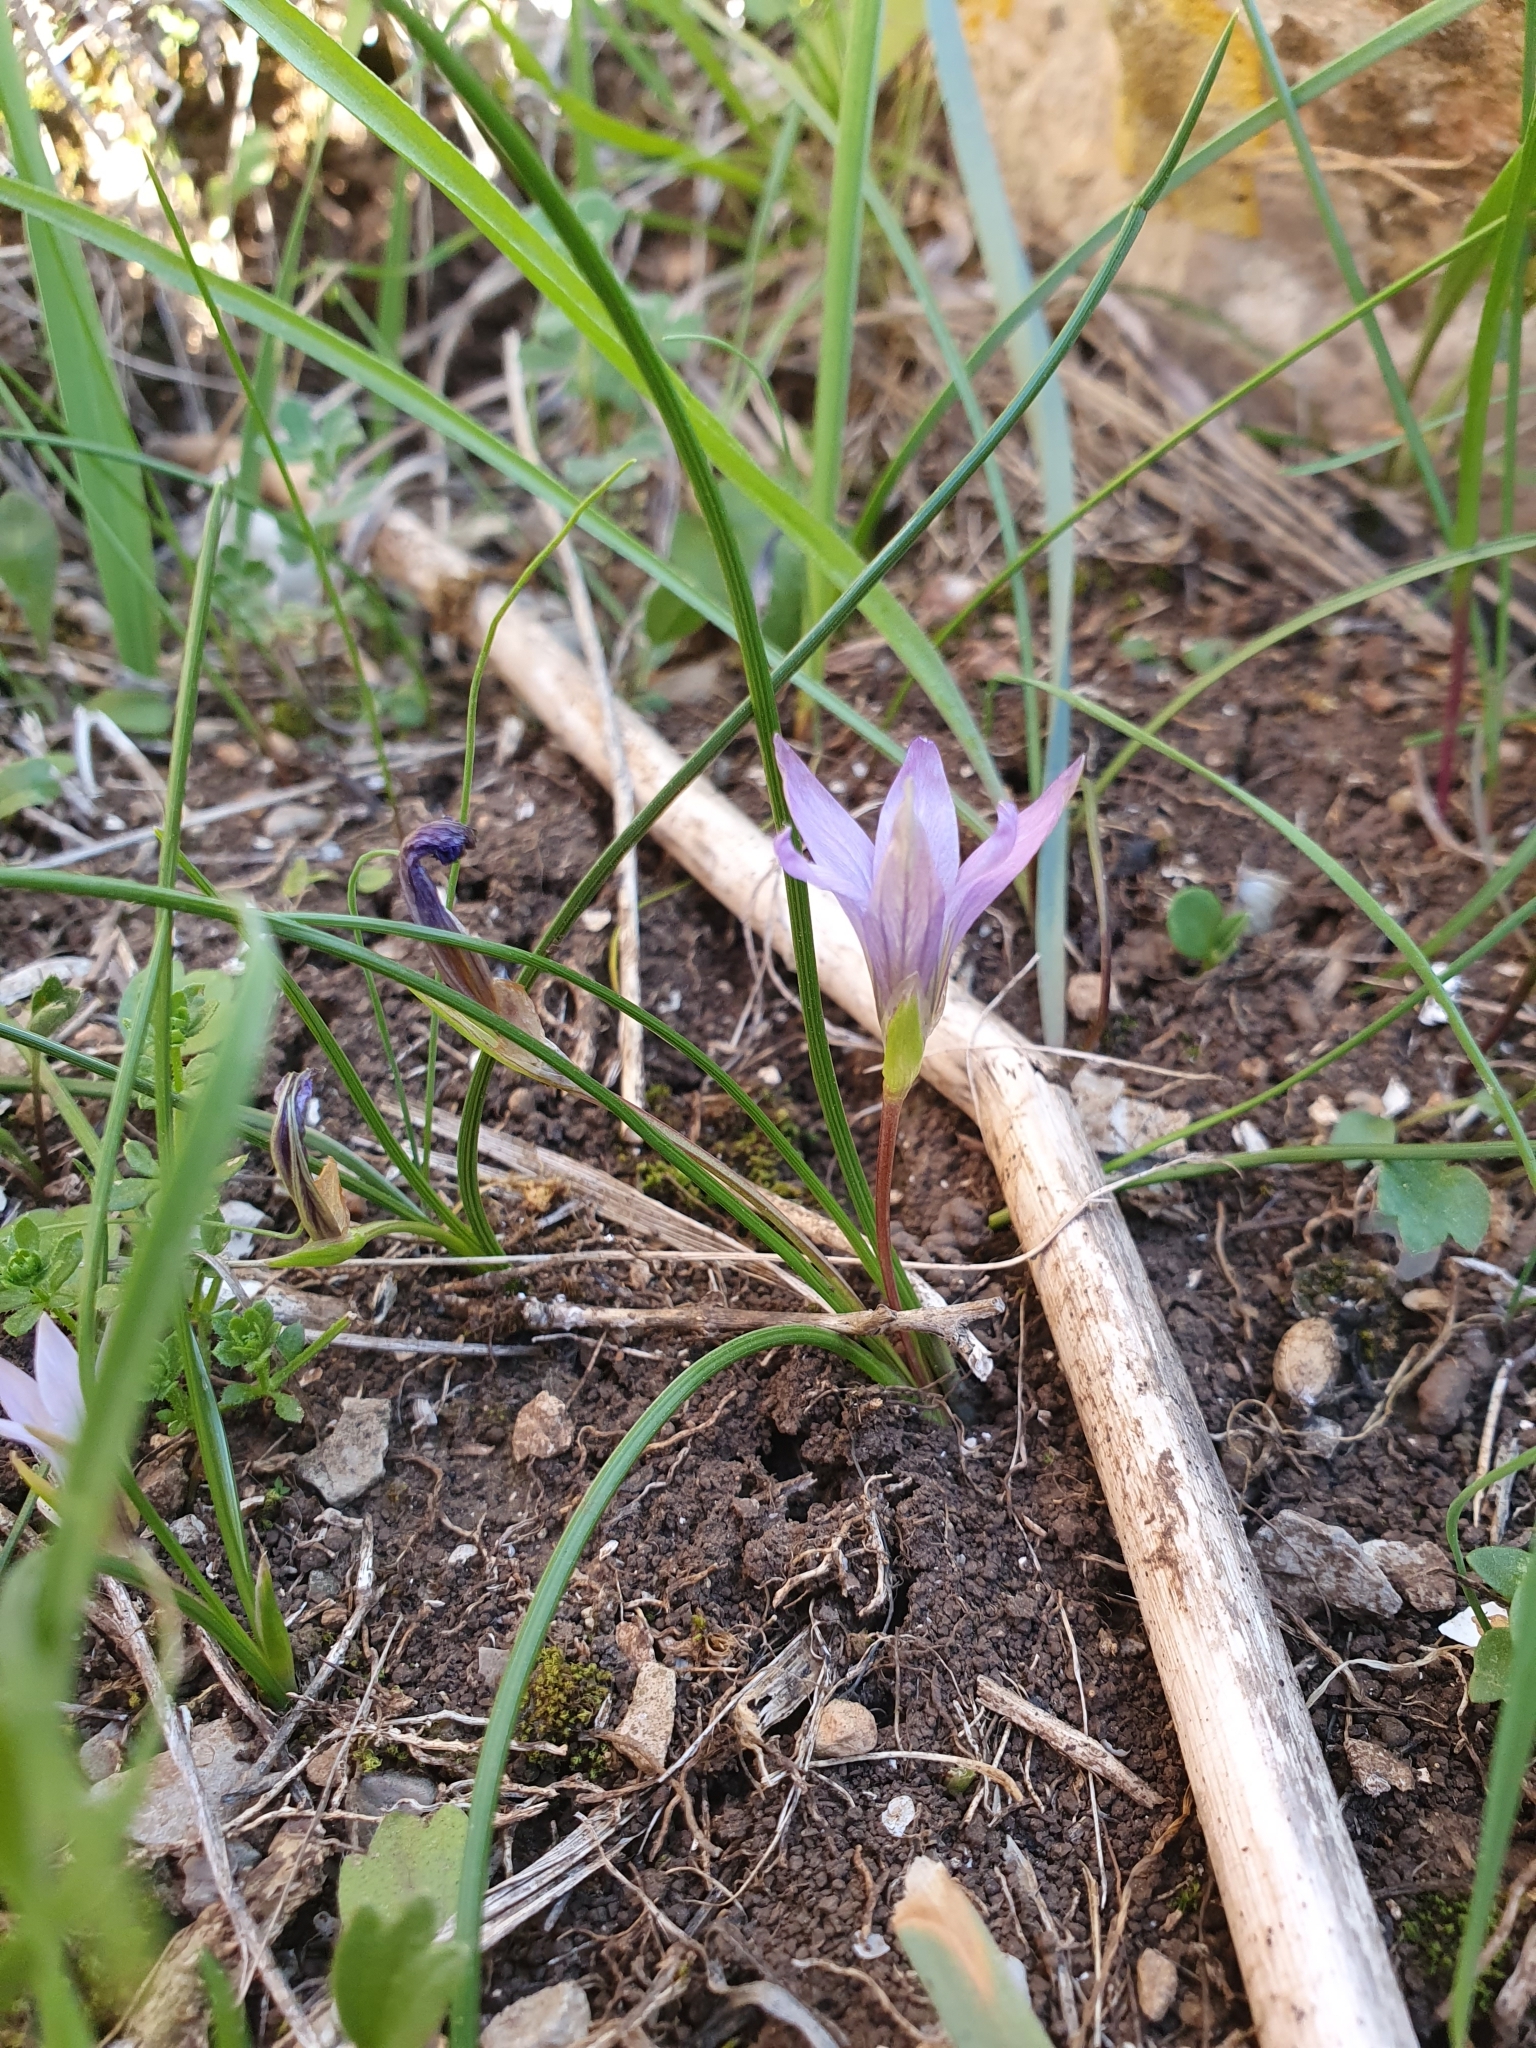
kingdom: Plantae
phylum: Tracheophyta
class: Liliopsida
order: Asparagales
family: Iridaceae
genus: Romulea
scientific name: Romulea bulbocodium
